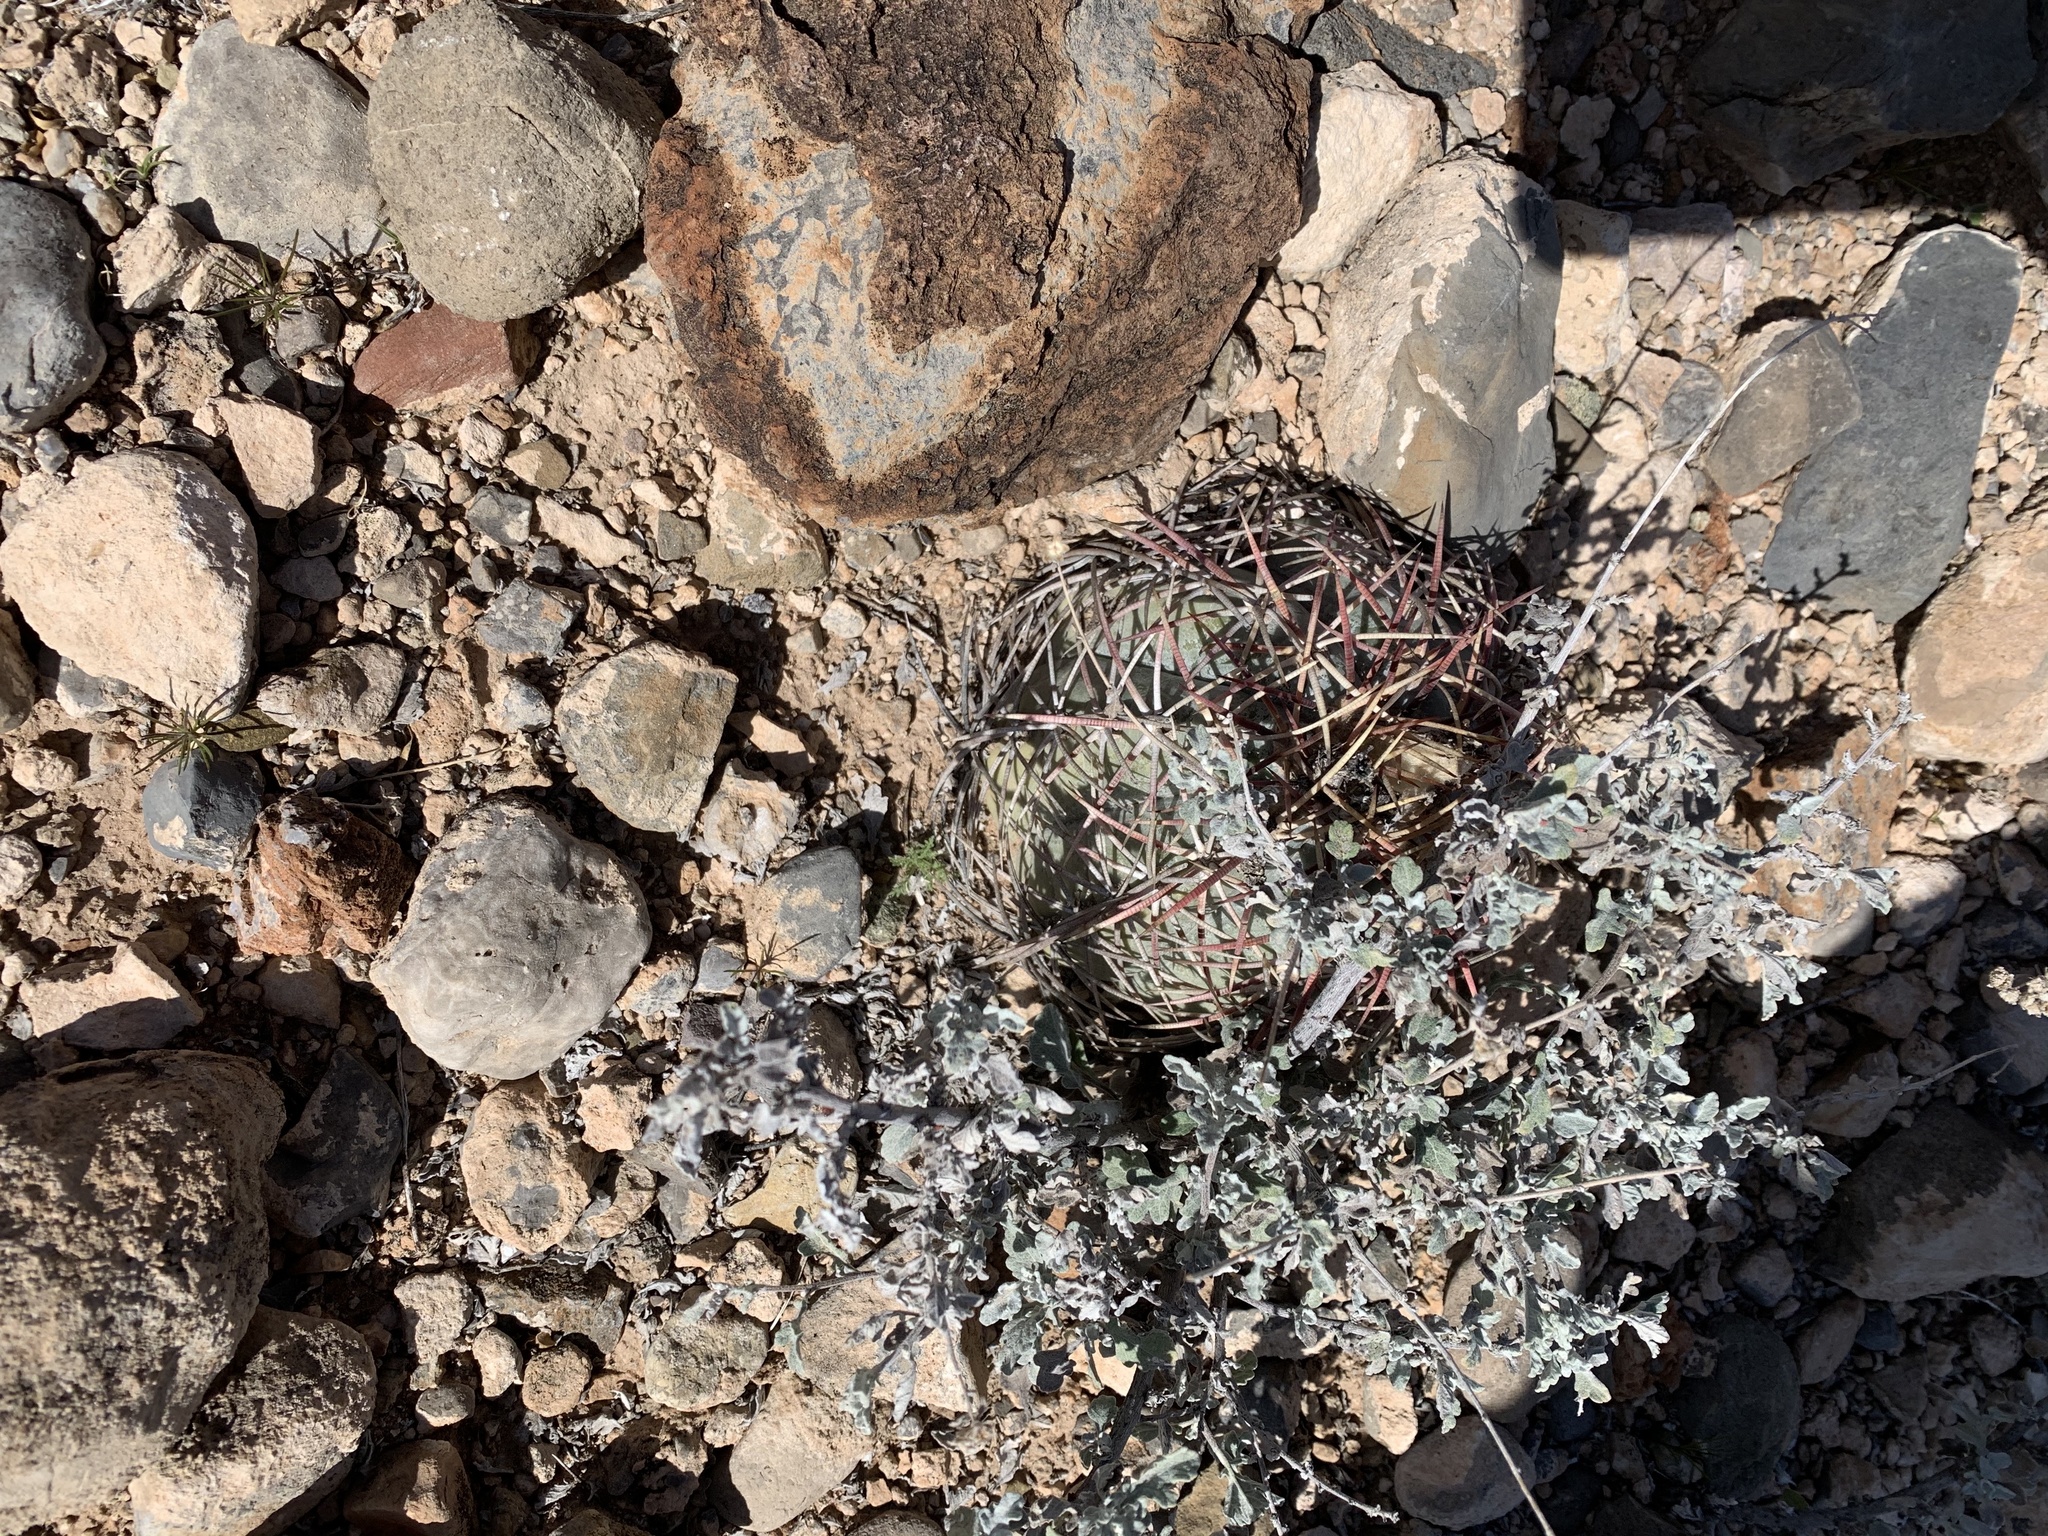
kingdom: Plantae
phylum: Tracheophyta
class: Magnoliopsida
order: Caryophyllales
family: Cactaceae
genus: Echinocactus
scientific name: Echinocactus horizonthalonius
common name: Devilshead
